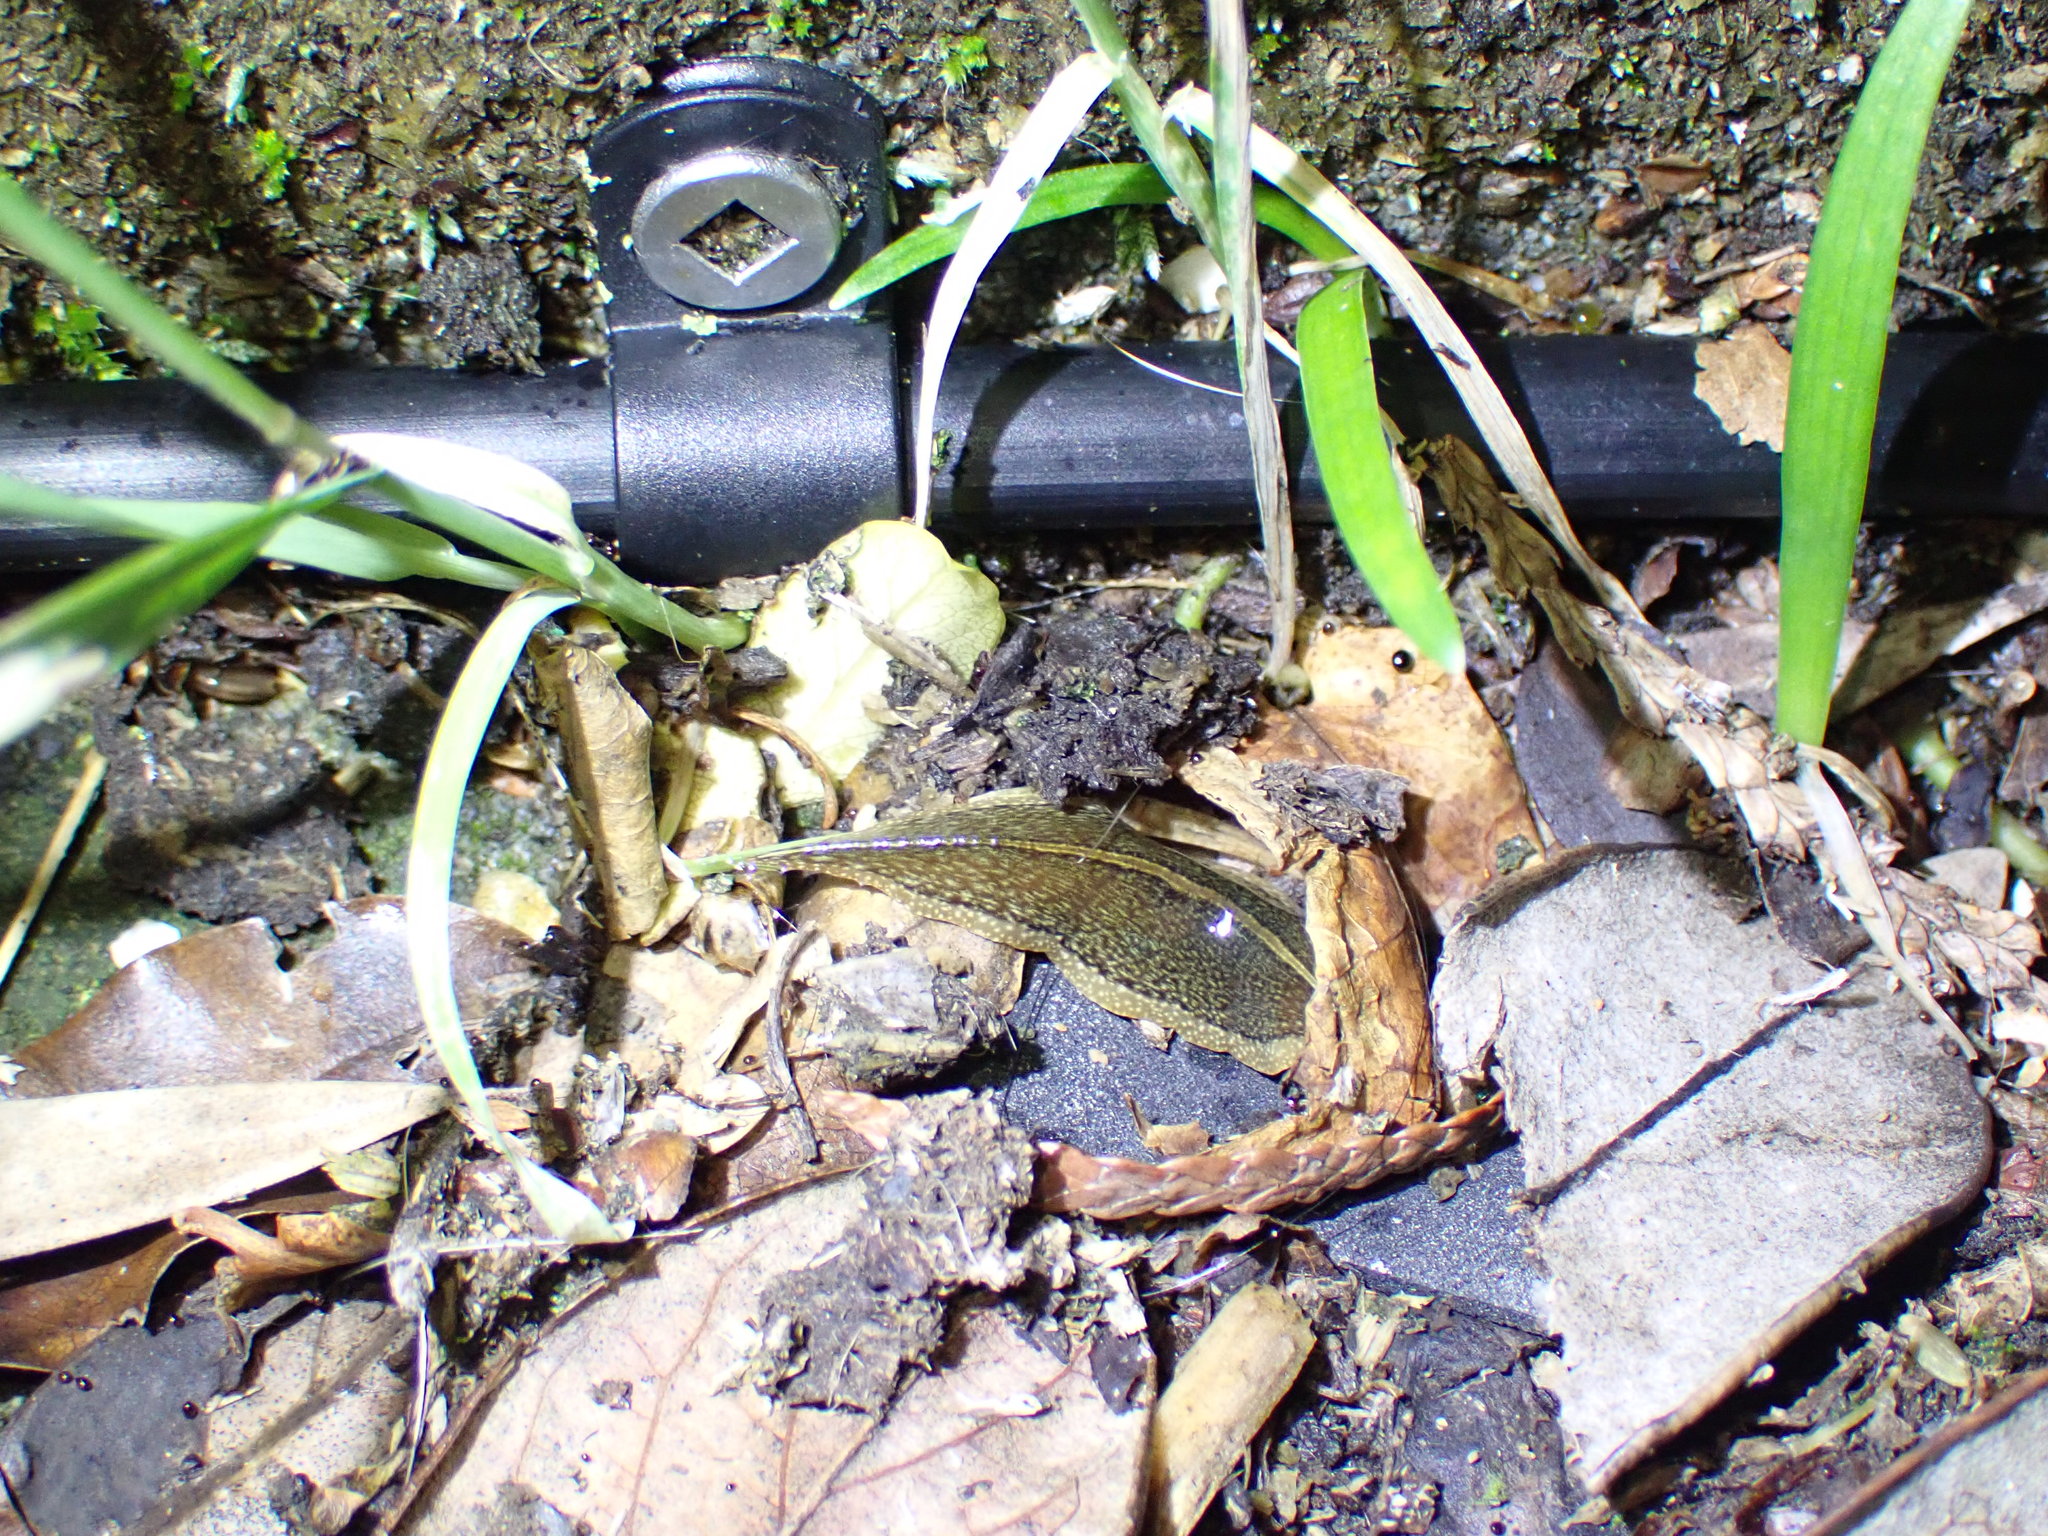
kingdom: Animalia
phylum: Platyhelminthes
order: Tricladida
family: Geoplanidae
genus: Newzealandia
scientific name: Newzealandia graffii
